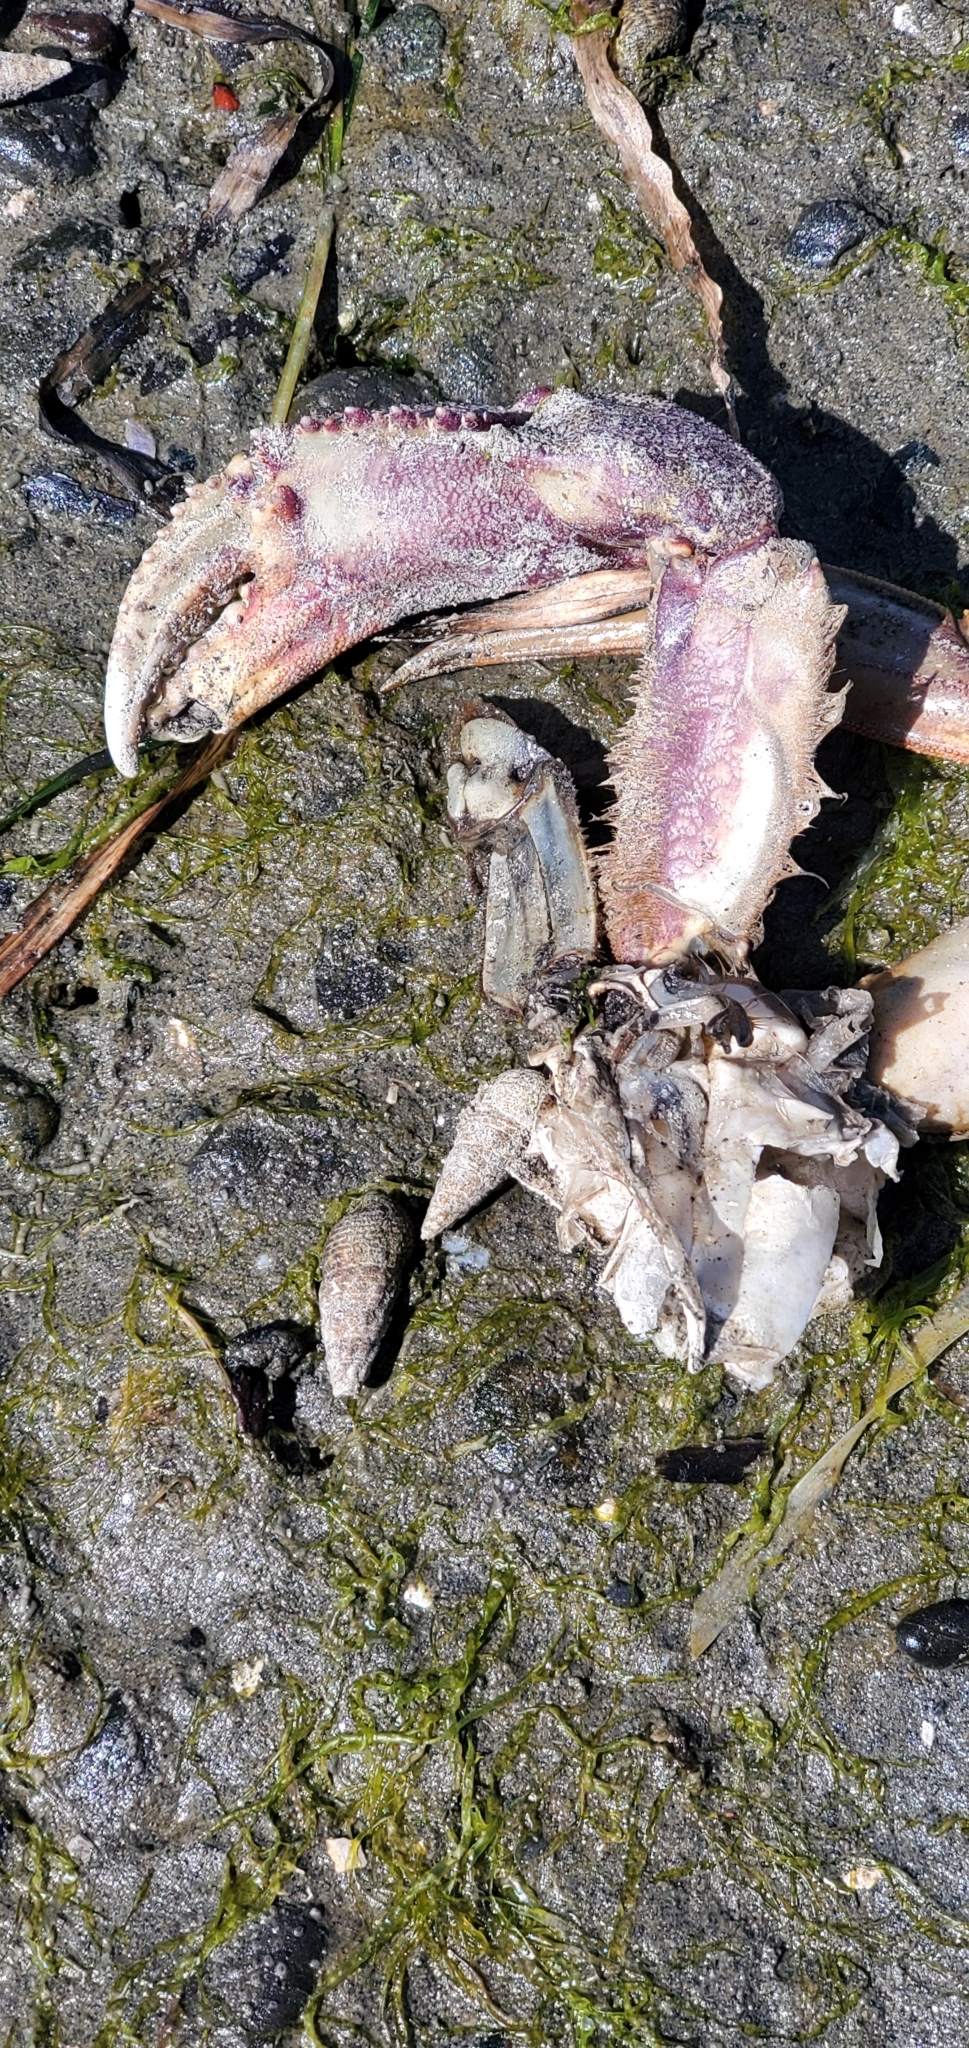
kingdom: Animalia
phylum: Arthropoda
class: Malacostraca
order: Decapoda
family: Cancridae
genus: Metacarcinus
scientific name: Metacarcinus magister
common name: Californian crab
